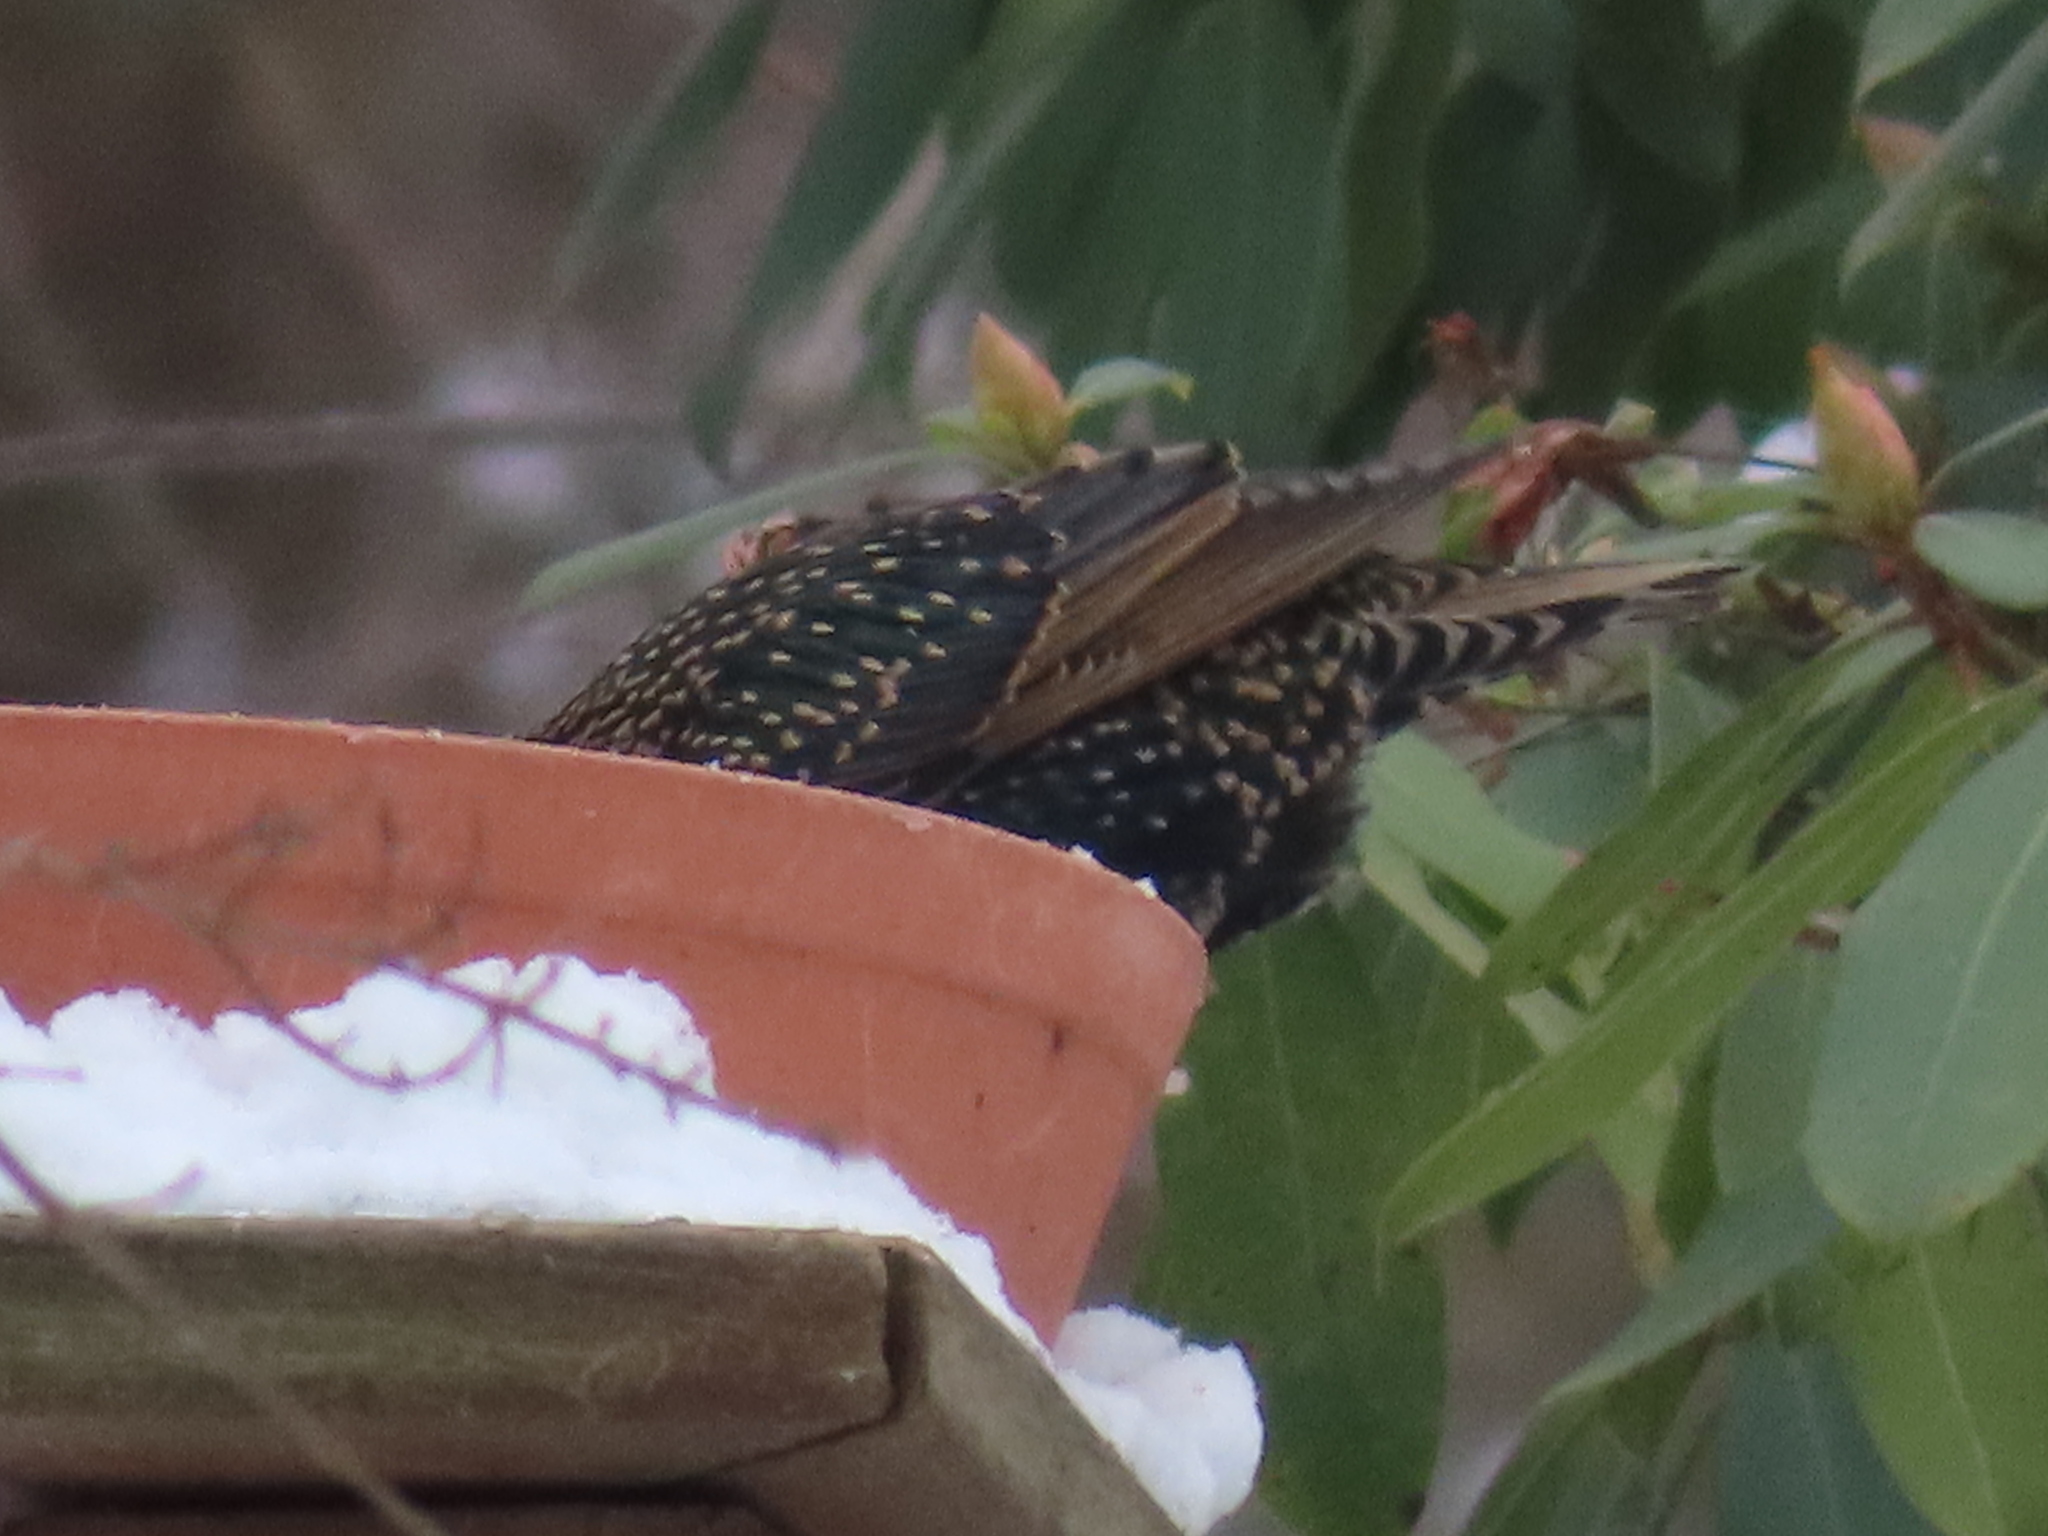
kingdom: Animalia
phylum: Chordata
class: Aves
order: Passeriformes
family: Sturnidae
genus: Sturnus
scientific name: Sturnus vulgaris
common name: Common starling
